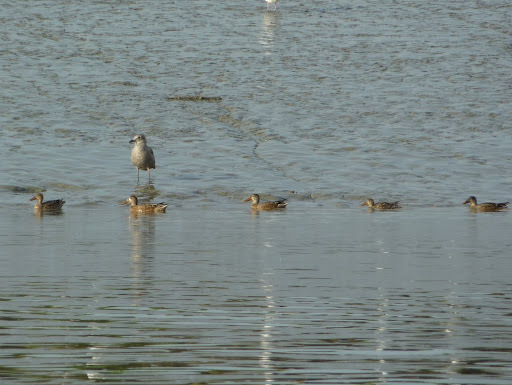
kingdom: Animalia
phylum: Chordata
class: Aves
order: Anseriformes
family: Anatidae
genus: Spatula
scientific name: Spatula clypeata
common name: Northern shoveler
